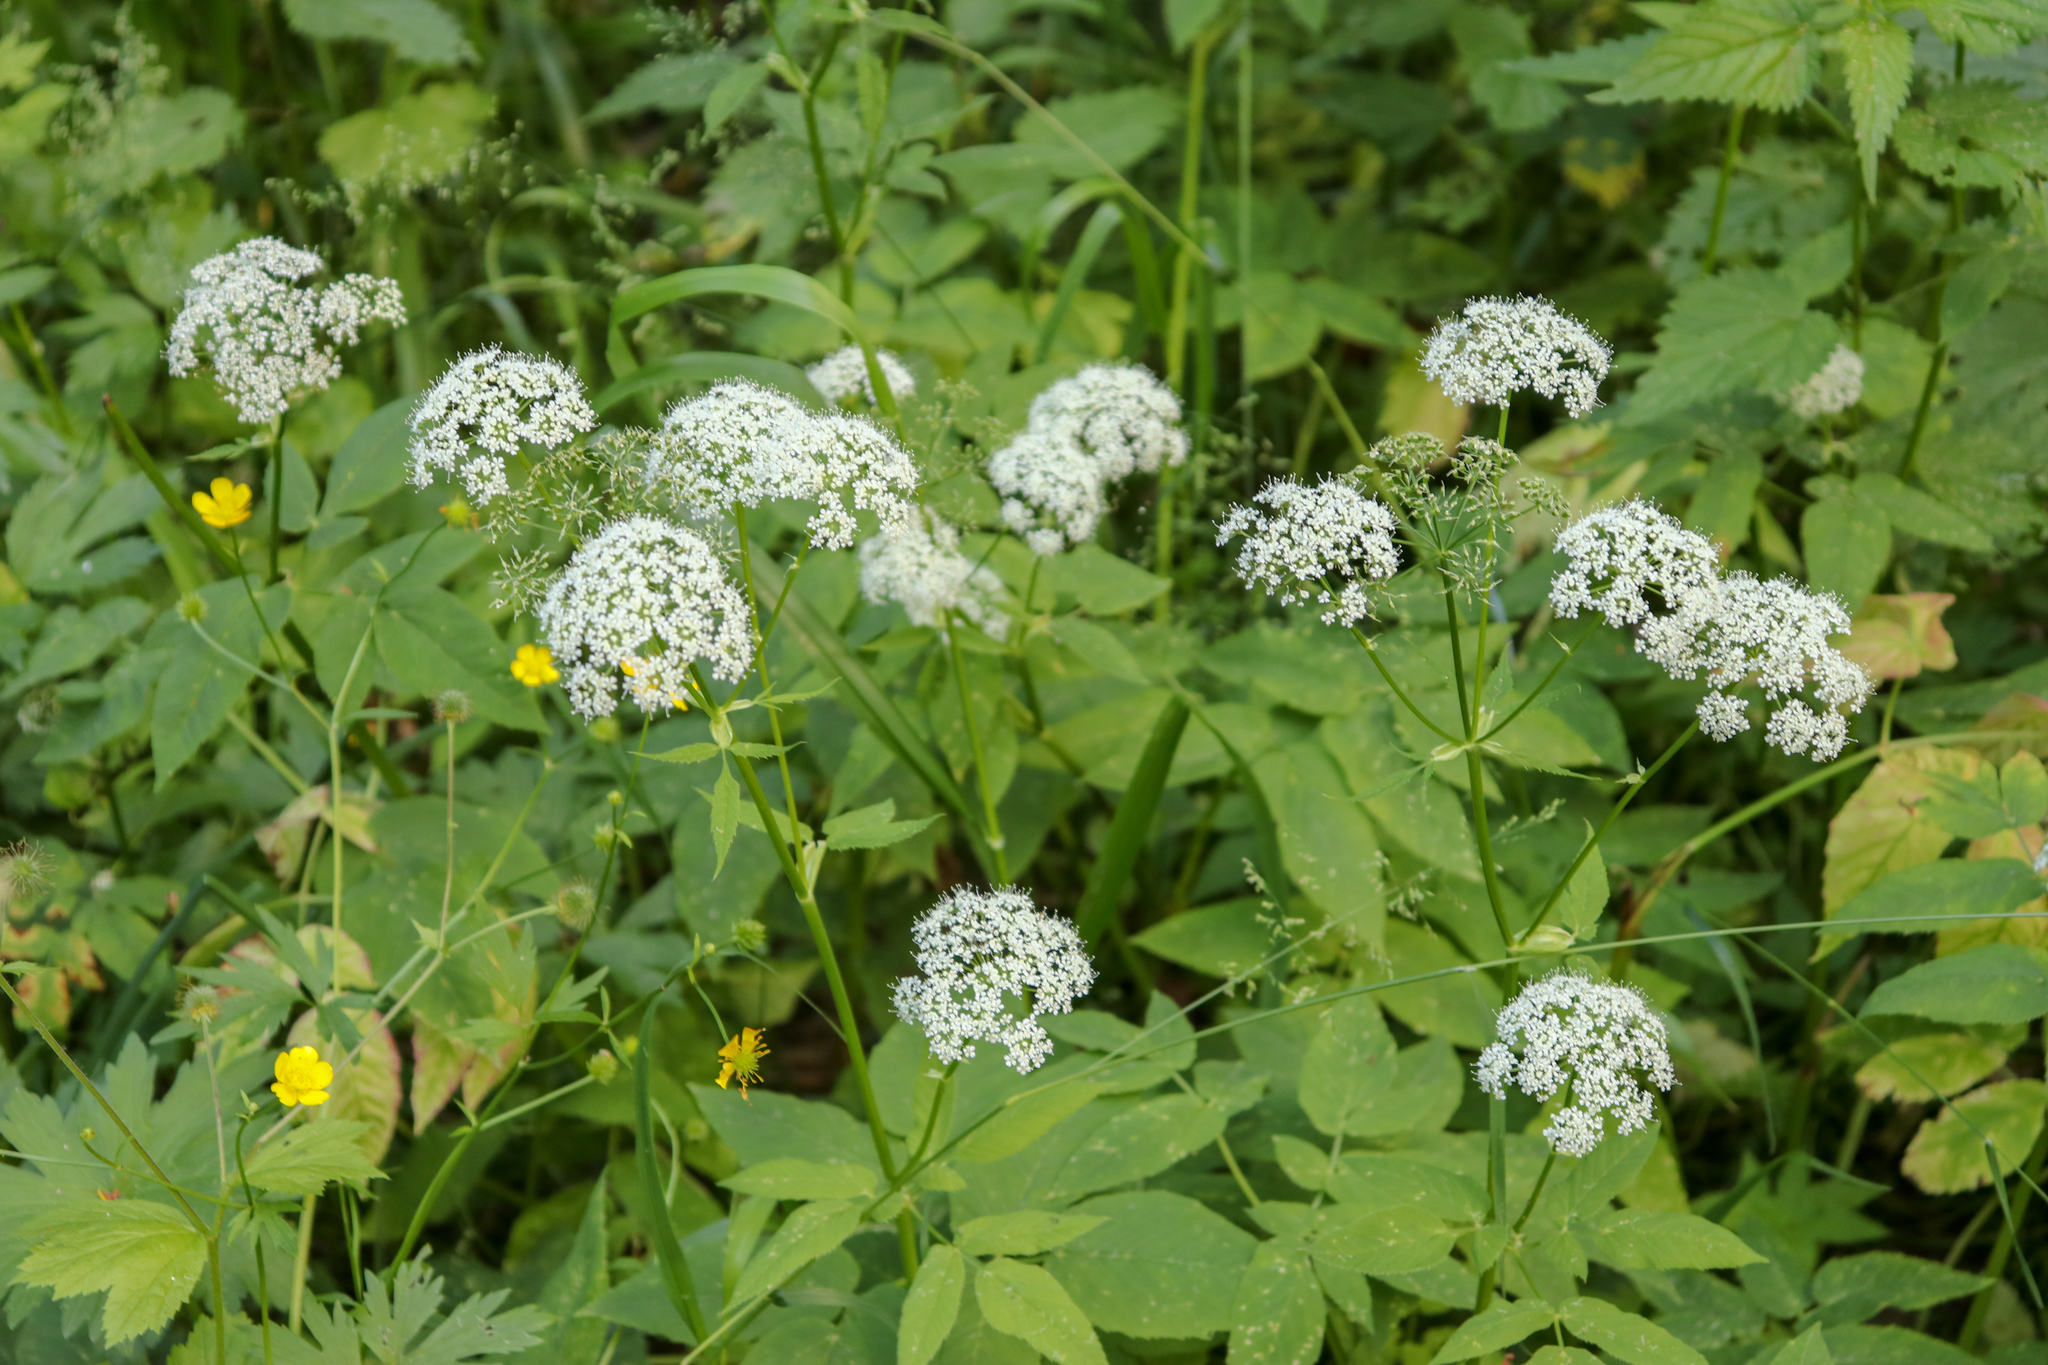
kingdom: Plantae
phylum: Tracheophyta
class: Magnoliopsida
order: Apiales
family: Apiaceae
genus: Aegopodium
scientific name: Aegopodium podagraria
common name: Ground-elder
